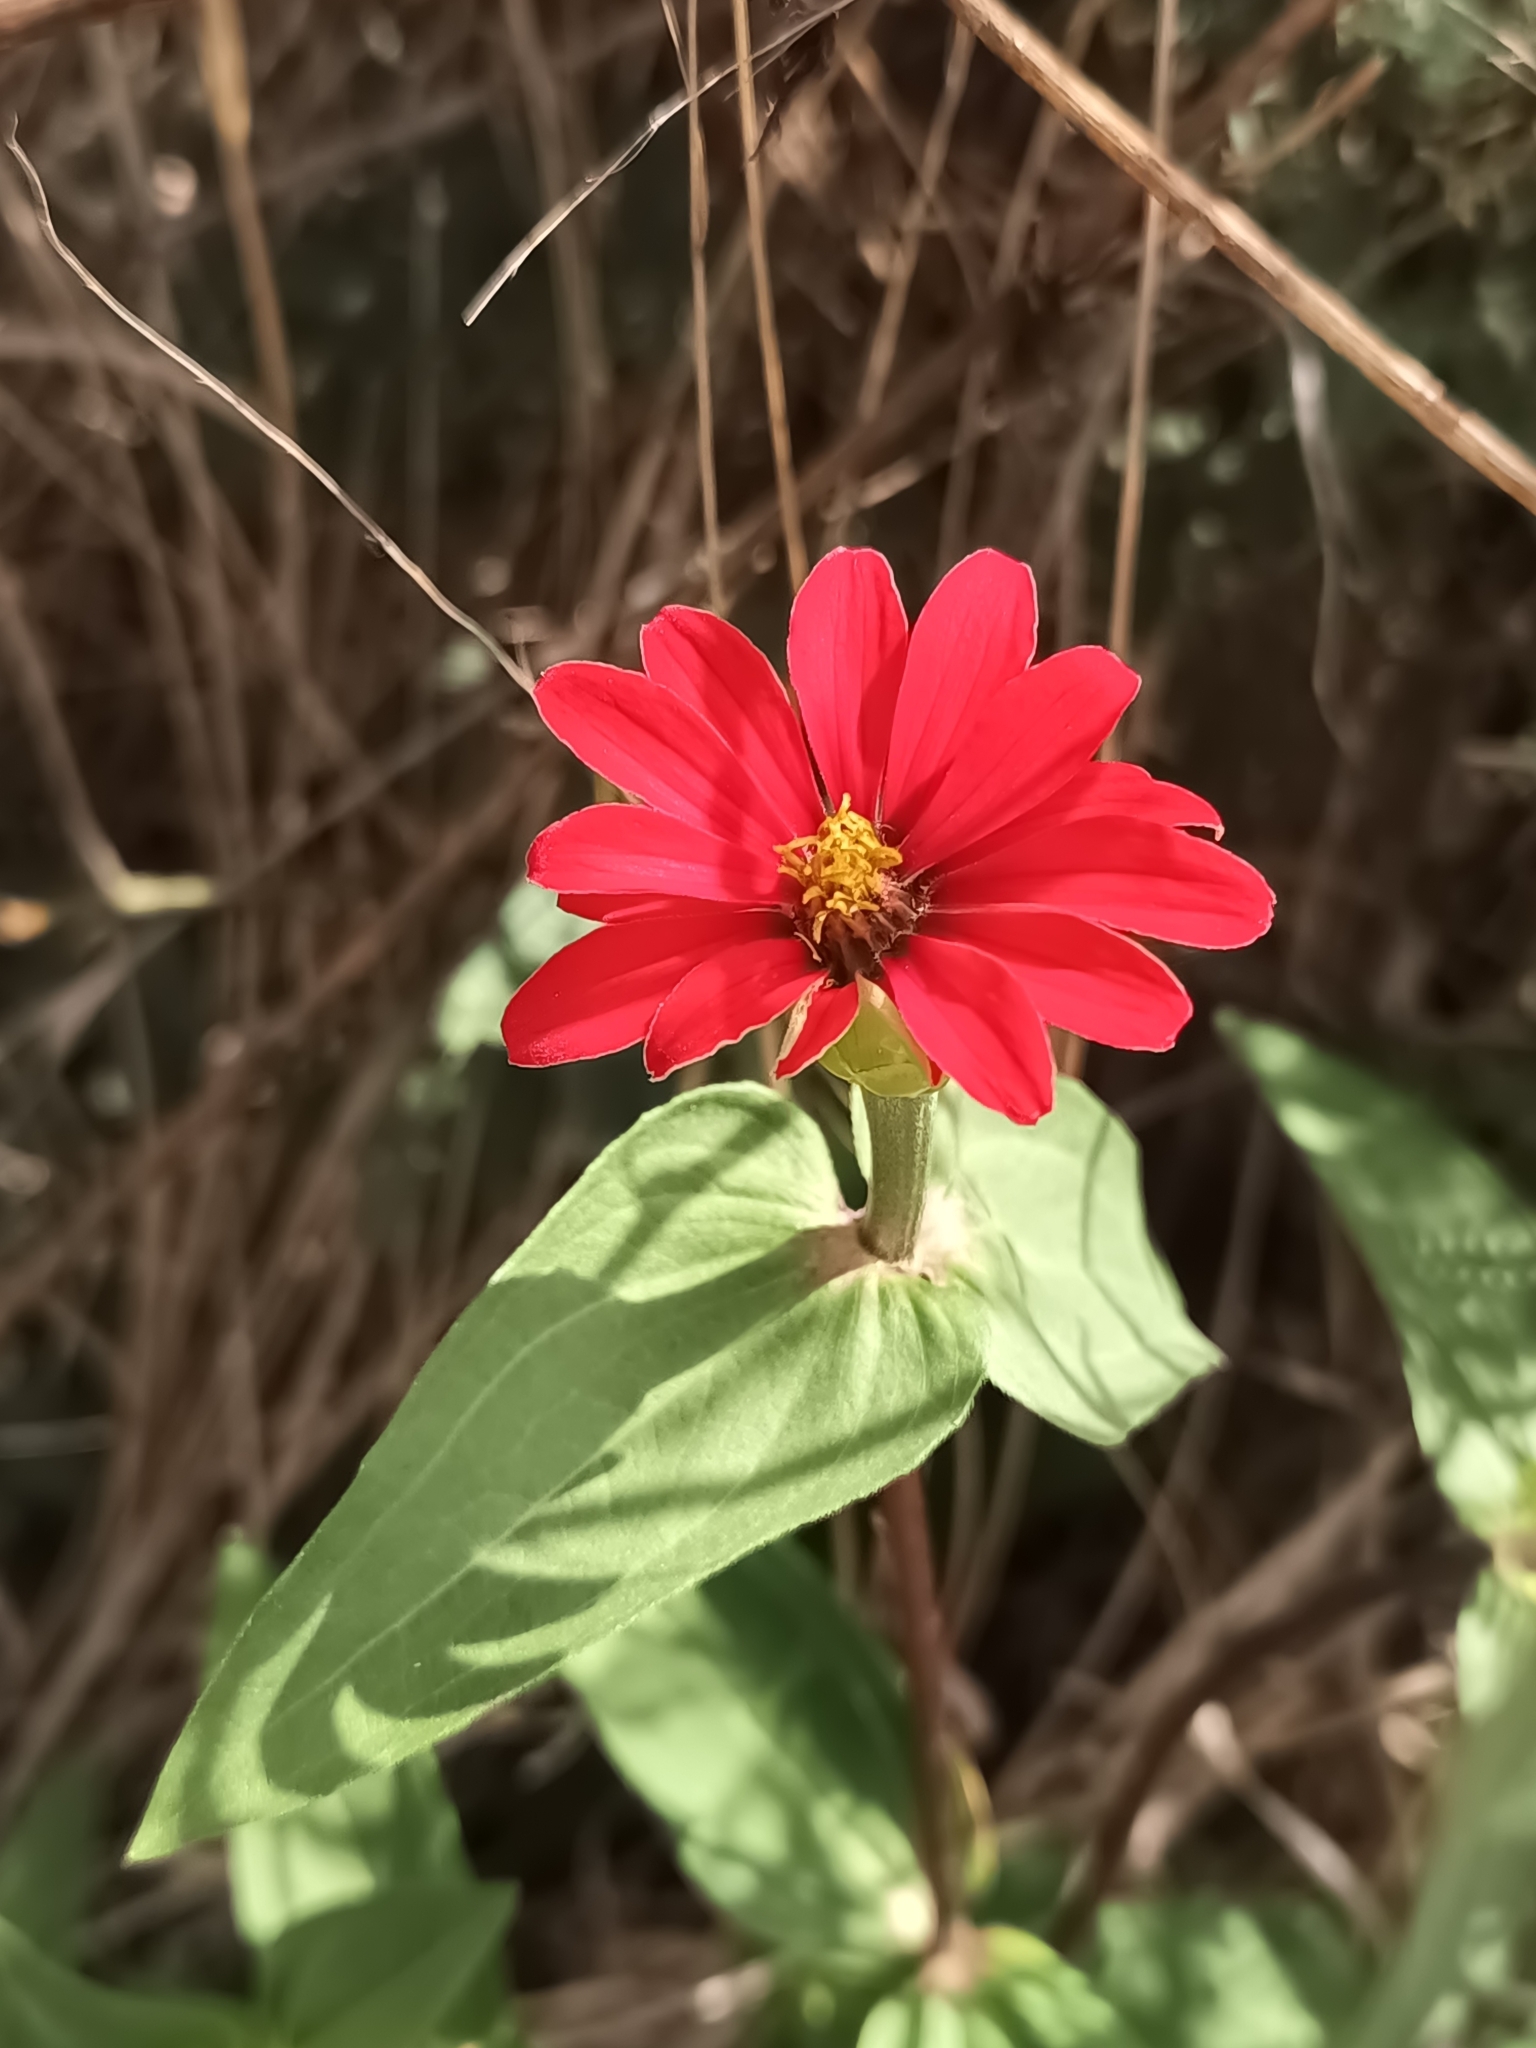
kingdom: Plantae
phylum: Tracheophyta
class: Magnoliopsida
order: Asterales
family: Asteraceae
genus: Zinnia
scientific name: Zinnia peruviana
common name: Peruvian zinnia
